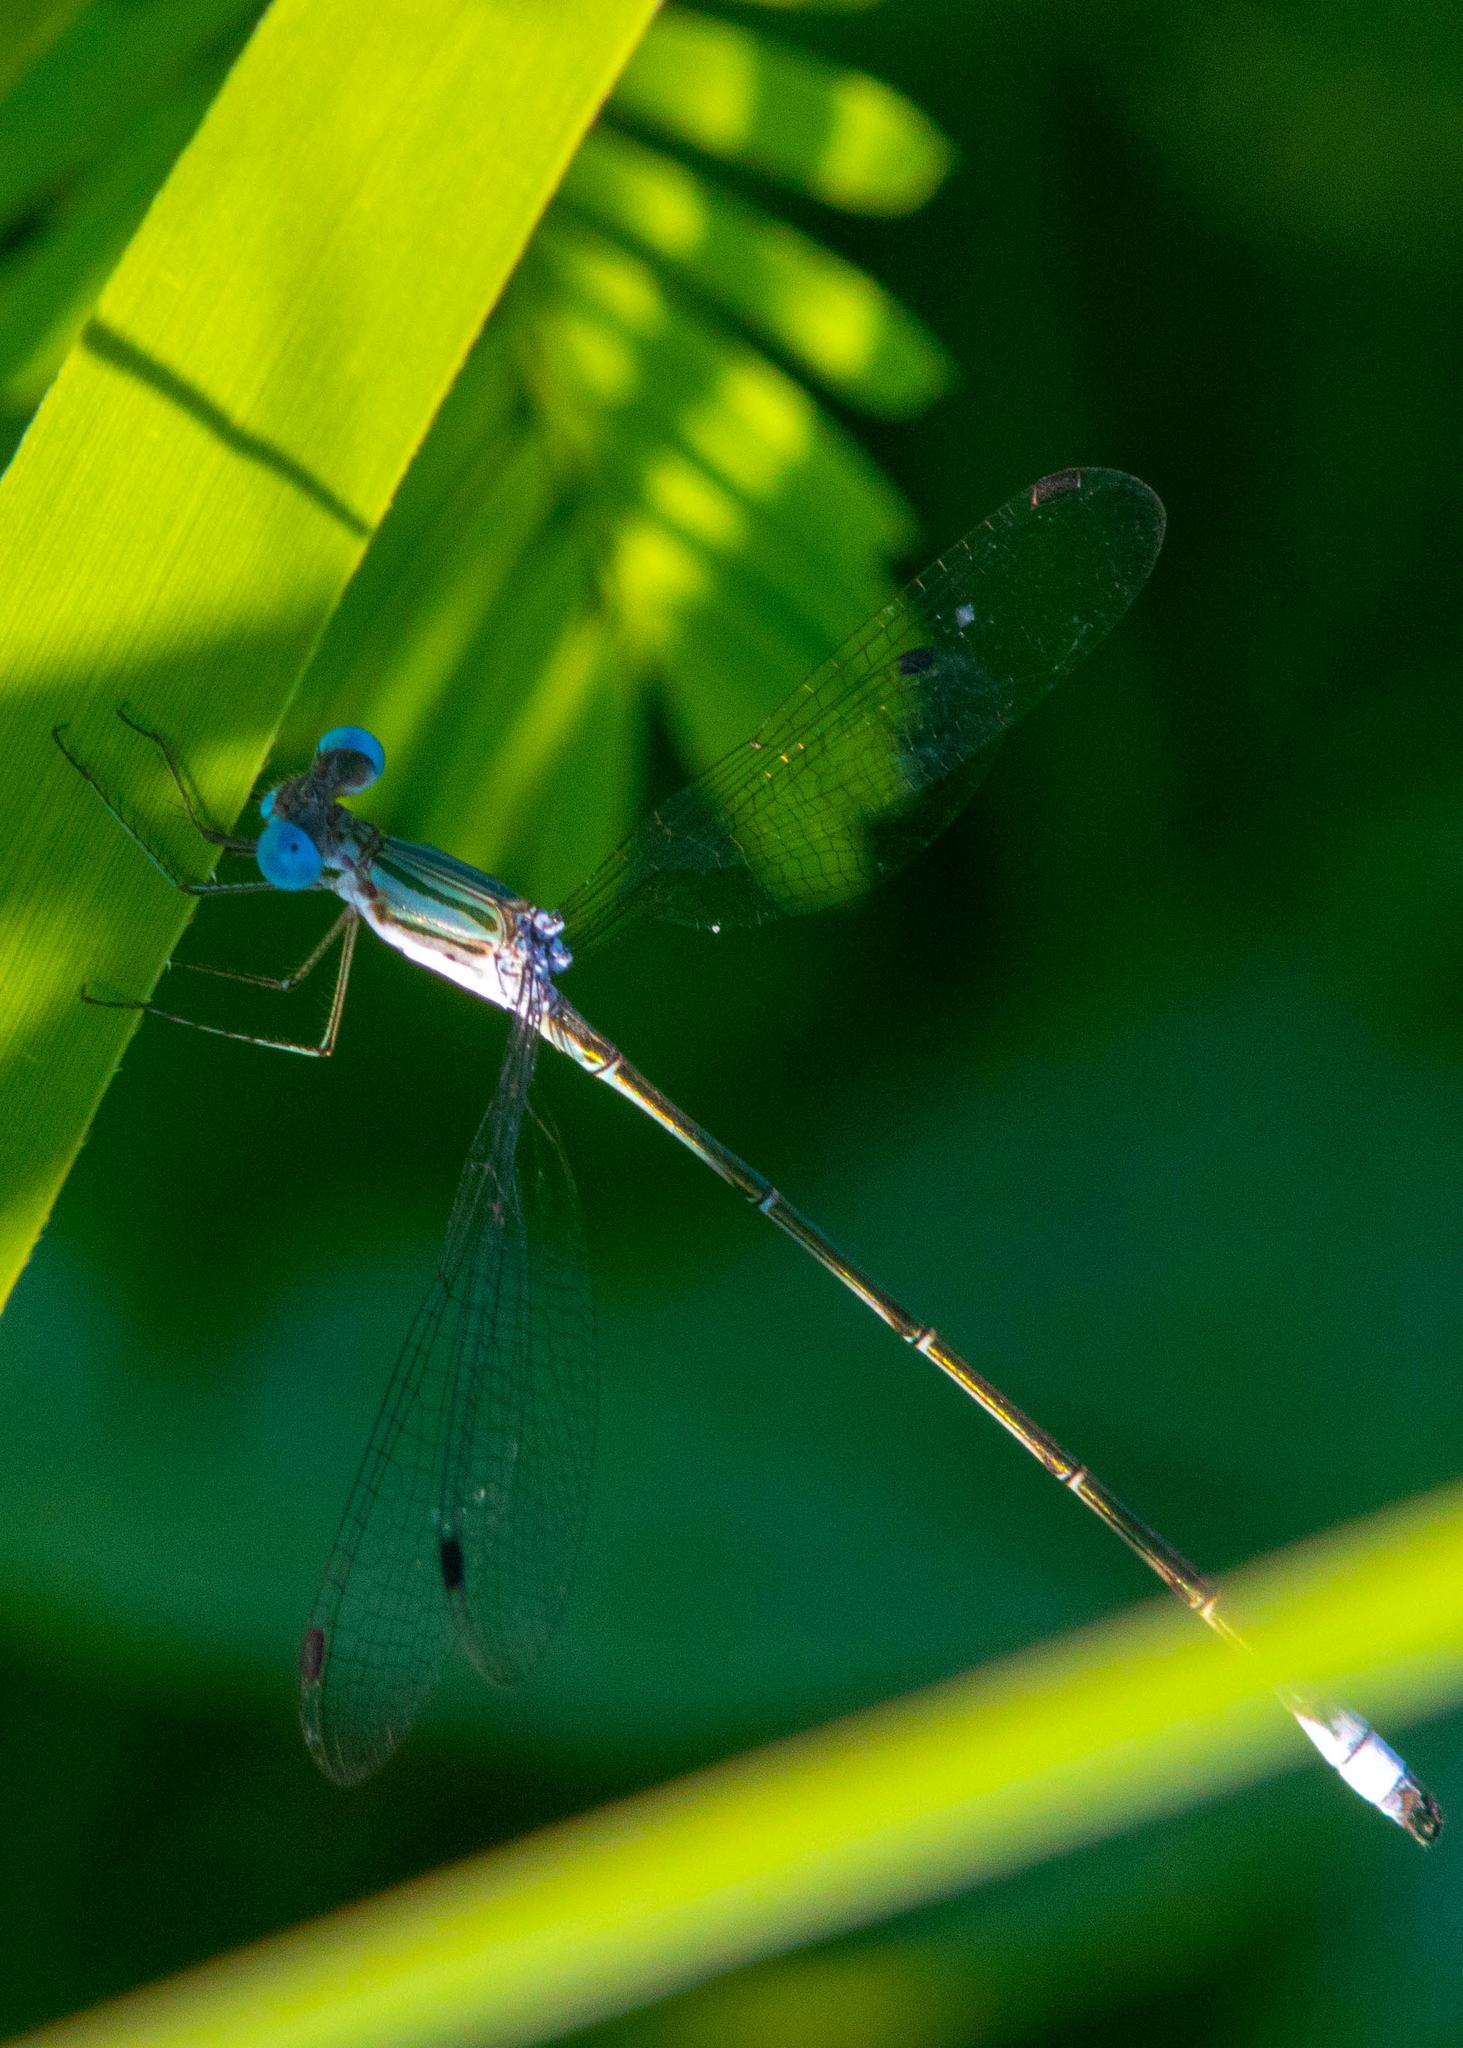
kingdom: Animalia
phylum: Arthropoda
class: Insecta
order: Odonata
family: Lestidae
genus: Lestes
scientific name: Lestes forficula
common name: Rainpool spreadwing
